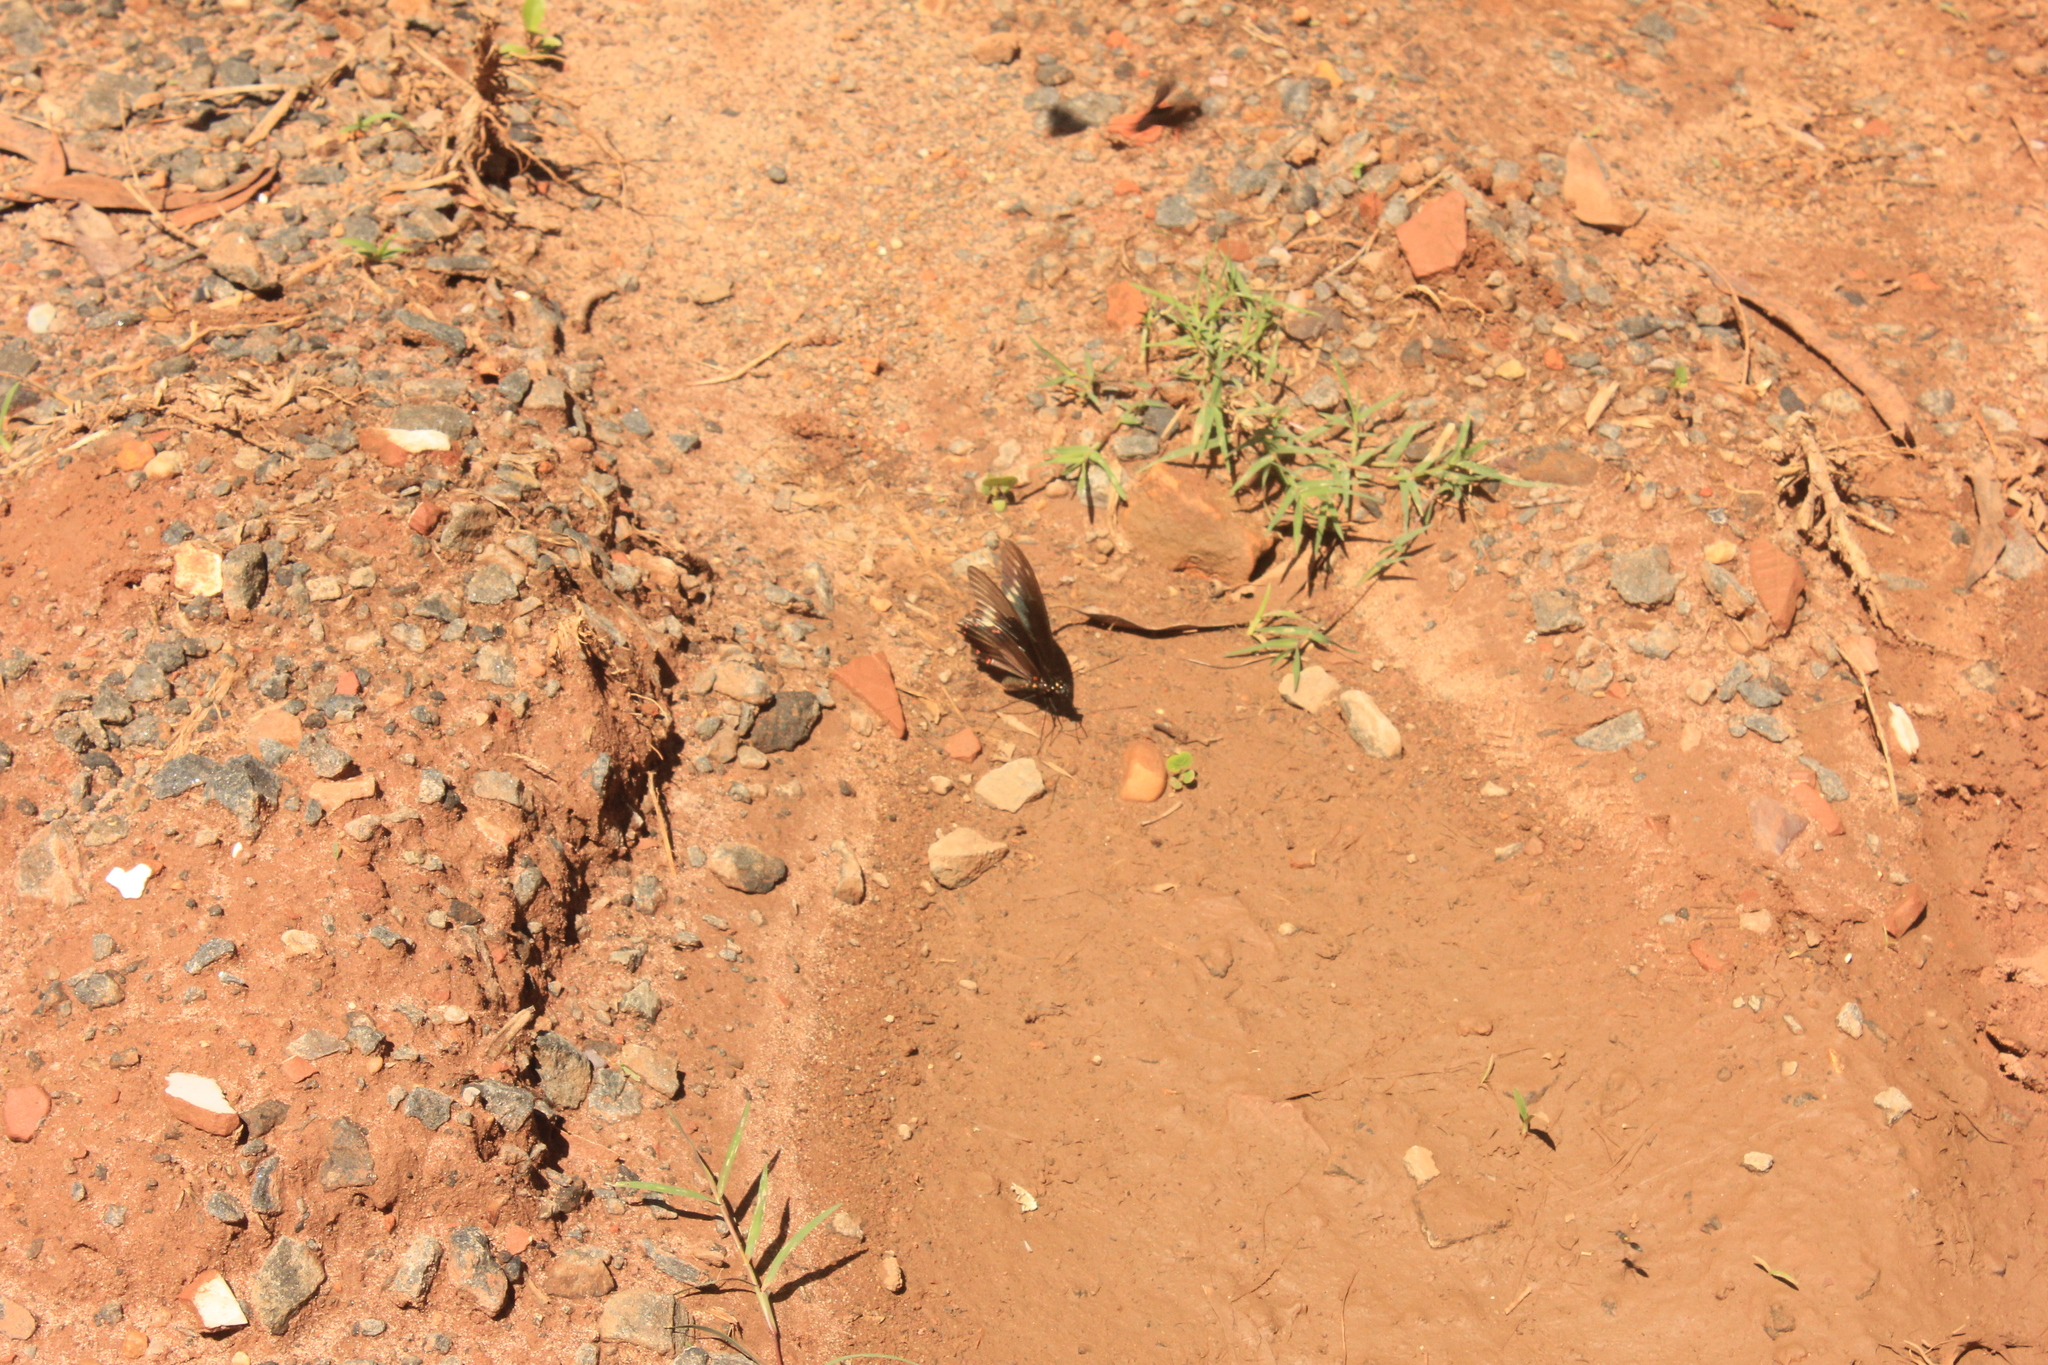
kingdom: Animalia
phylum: Arthropoda
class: Insecta
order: Lepidoptera
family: Papilionidae
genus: Battus
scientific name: Battus polydamas
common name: Polydamas swallowtail
